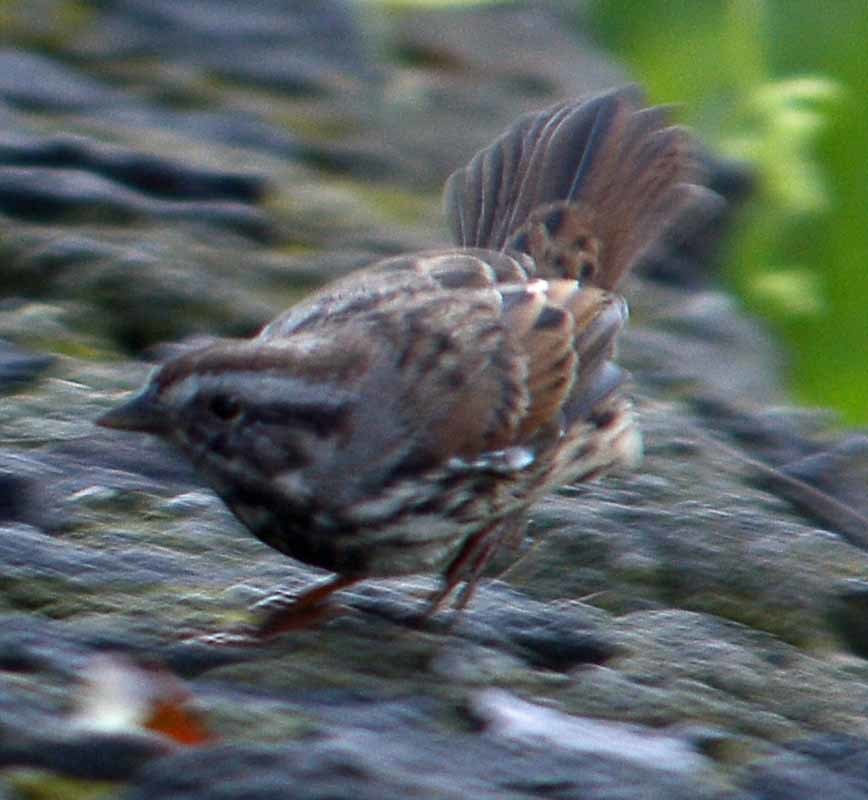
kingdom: Animalia
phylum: Chordata
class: Aves
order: Passeriformes
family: Passerellidae
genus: Melospiza
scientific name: Melospiza melodia
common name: Song sparrow
